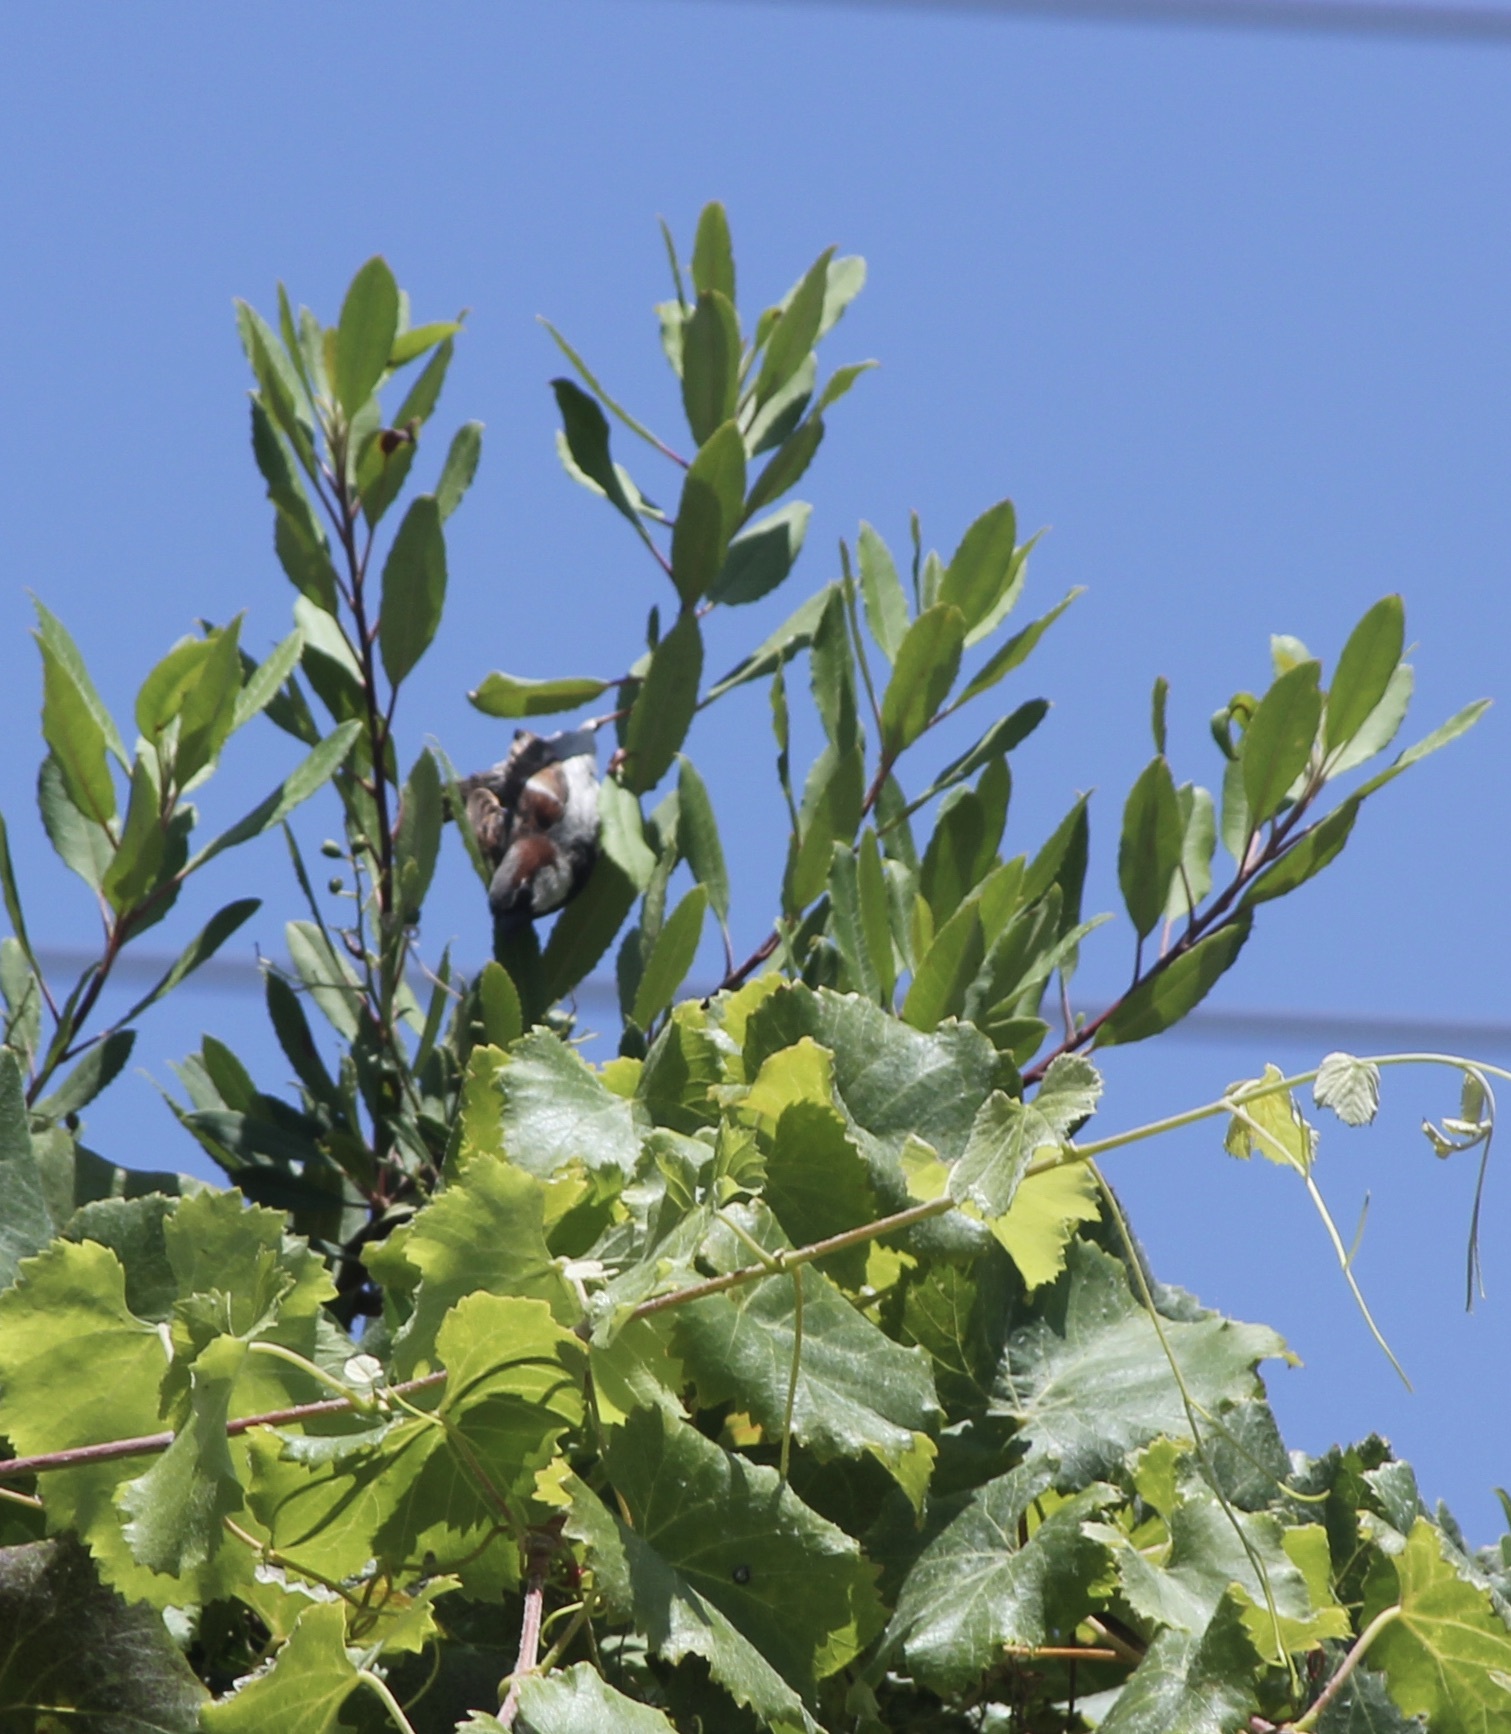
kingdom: Animalia
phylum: Chordata
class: Aves
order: Passeriformes
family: Passeridae
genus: Passer
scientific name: Passer domesticus
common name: House sparrow
